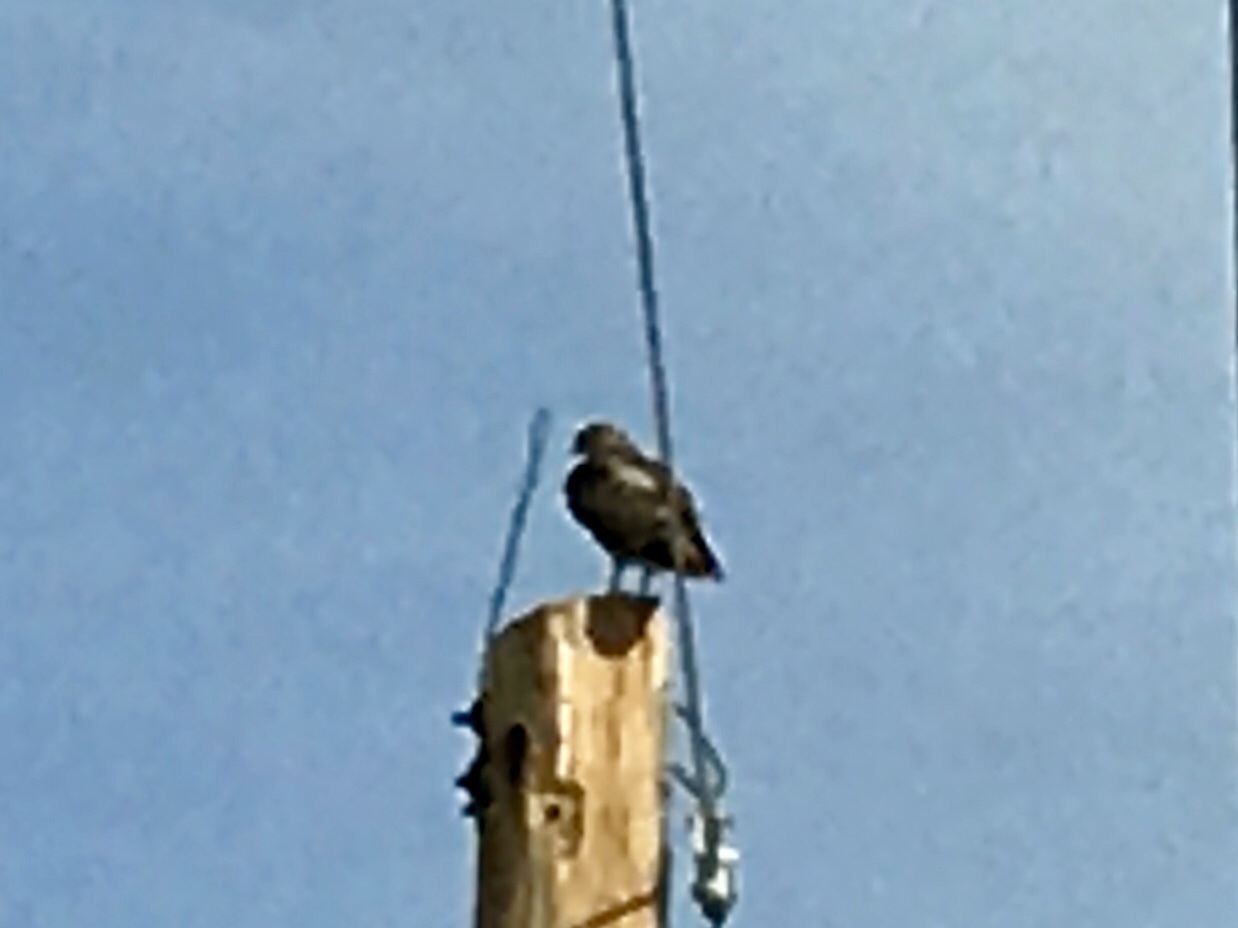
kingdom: Animalia
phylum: Chordata
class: Aves
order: Accipitriformes
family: Accipitridae
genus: Buteo
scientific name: Buteo jamaicensis
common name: Red-tailed hawk
